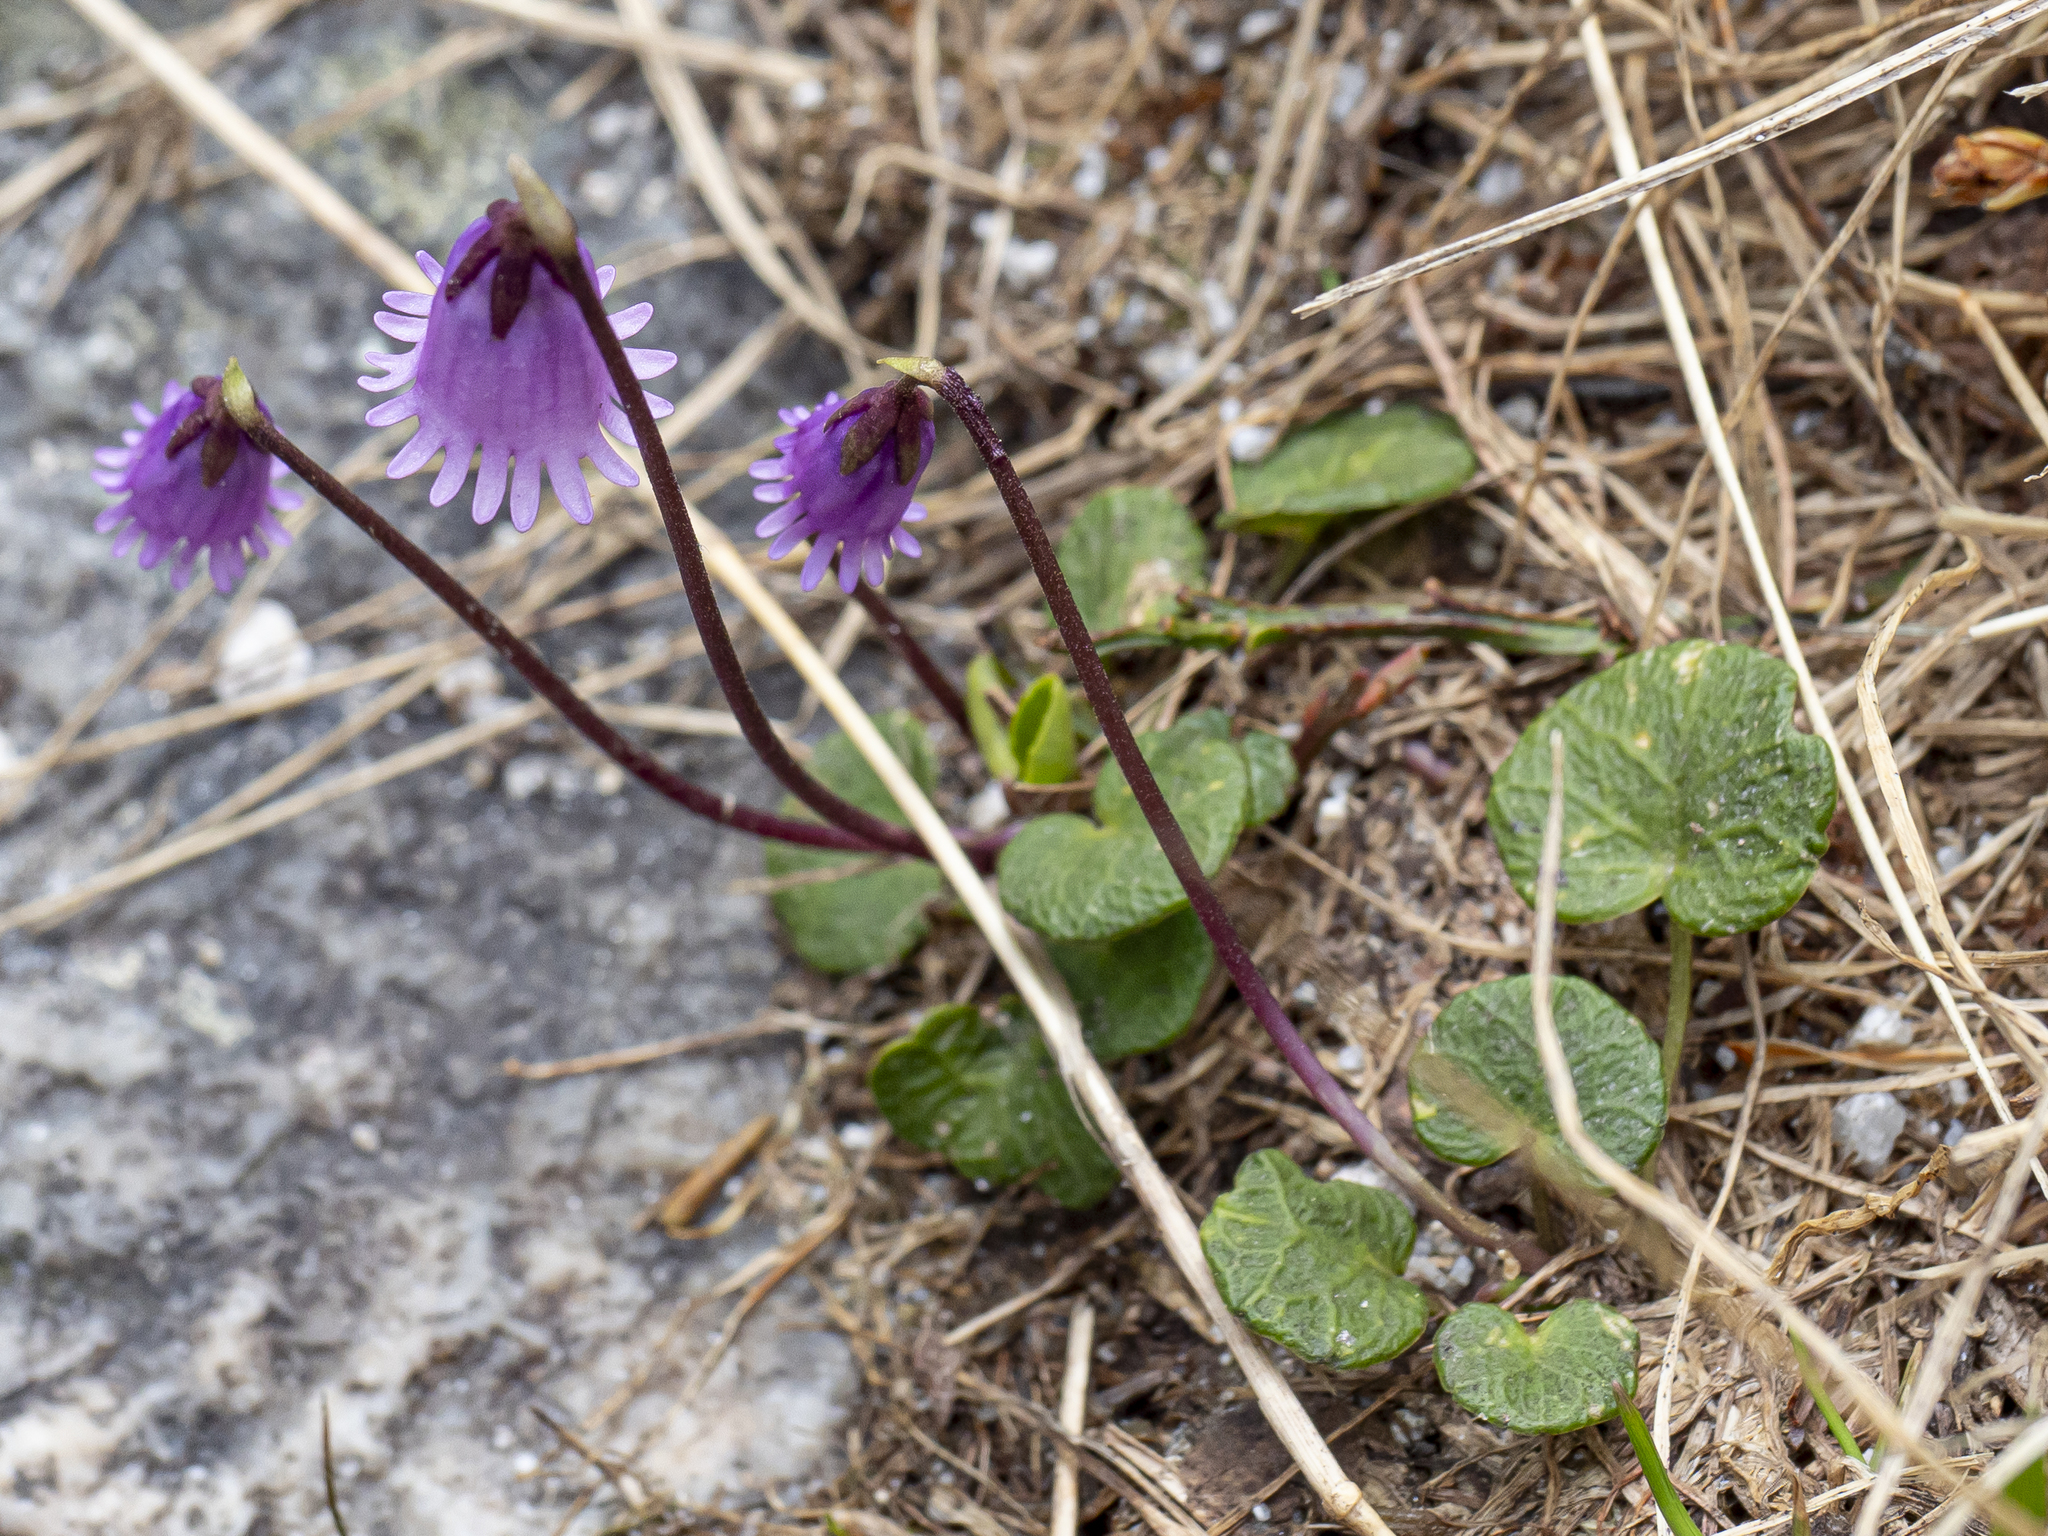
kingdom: Plantae
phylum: Tracheophyta
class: Magnoliopsida
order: Ericales
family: Primulaceae
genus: Soldanella
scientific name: Soldanella alpicola
